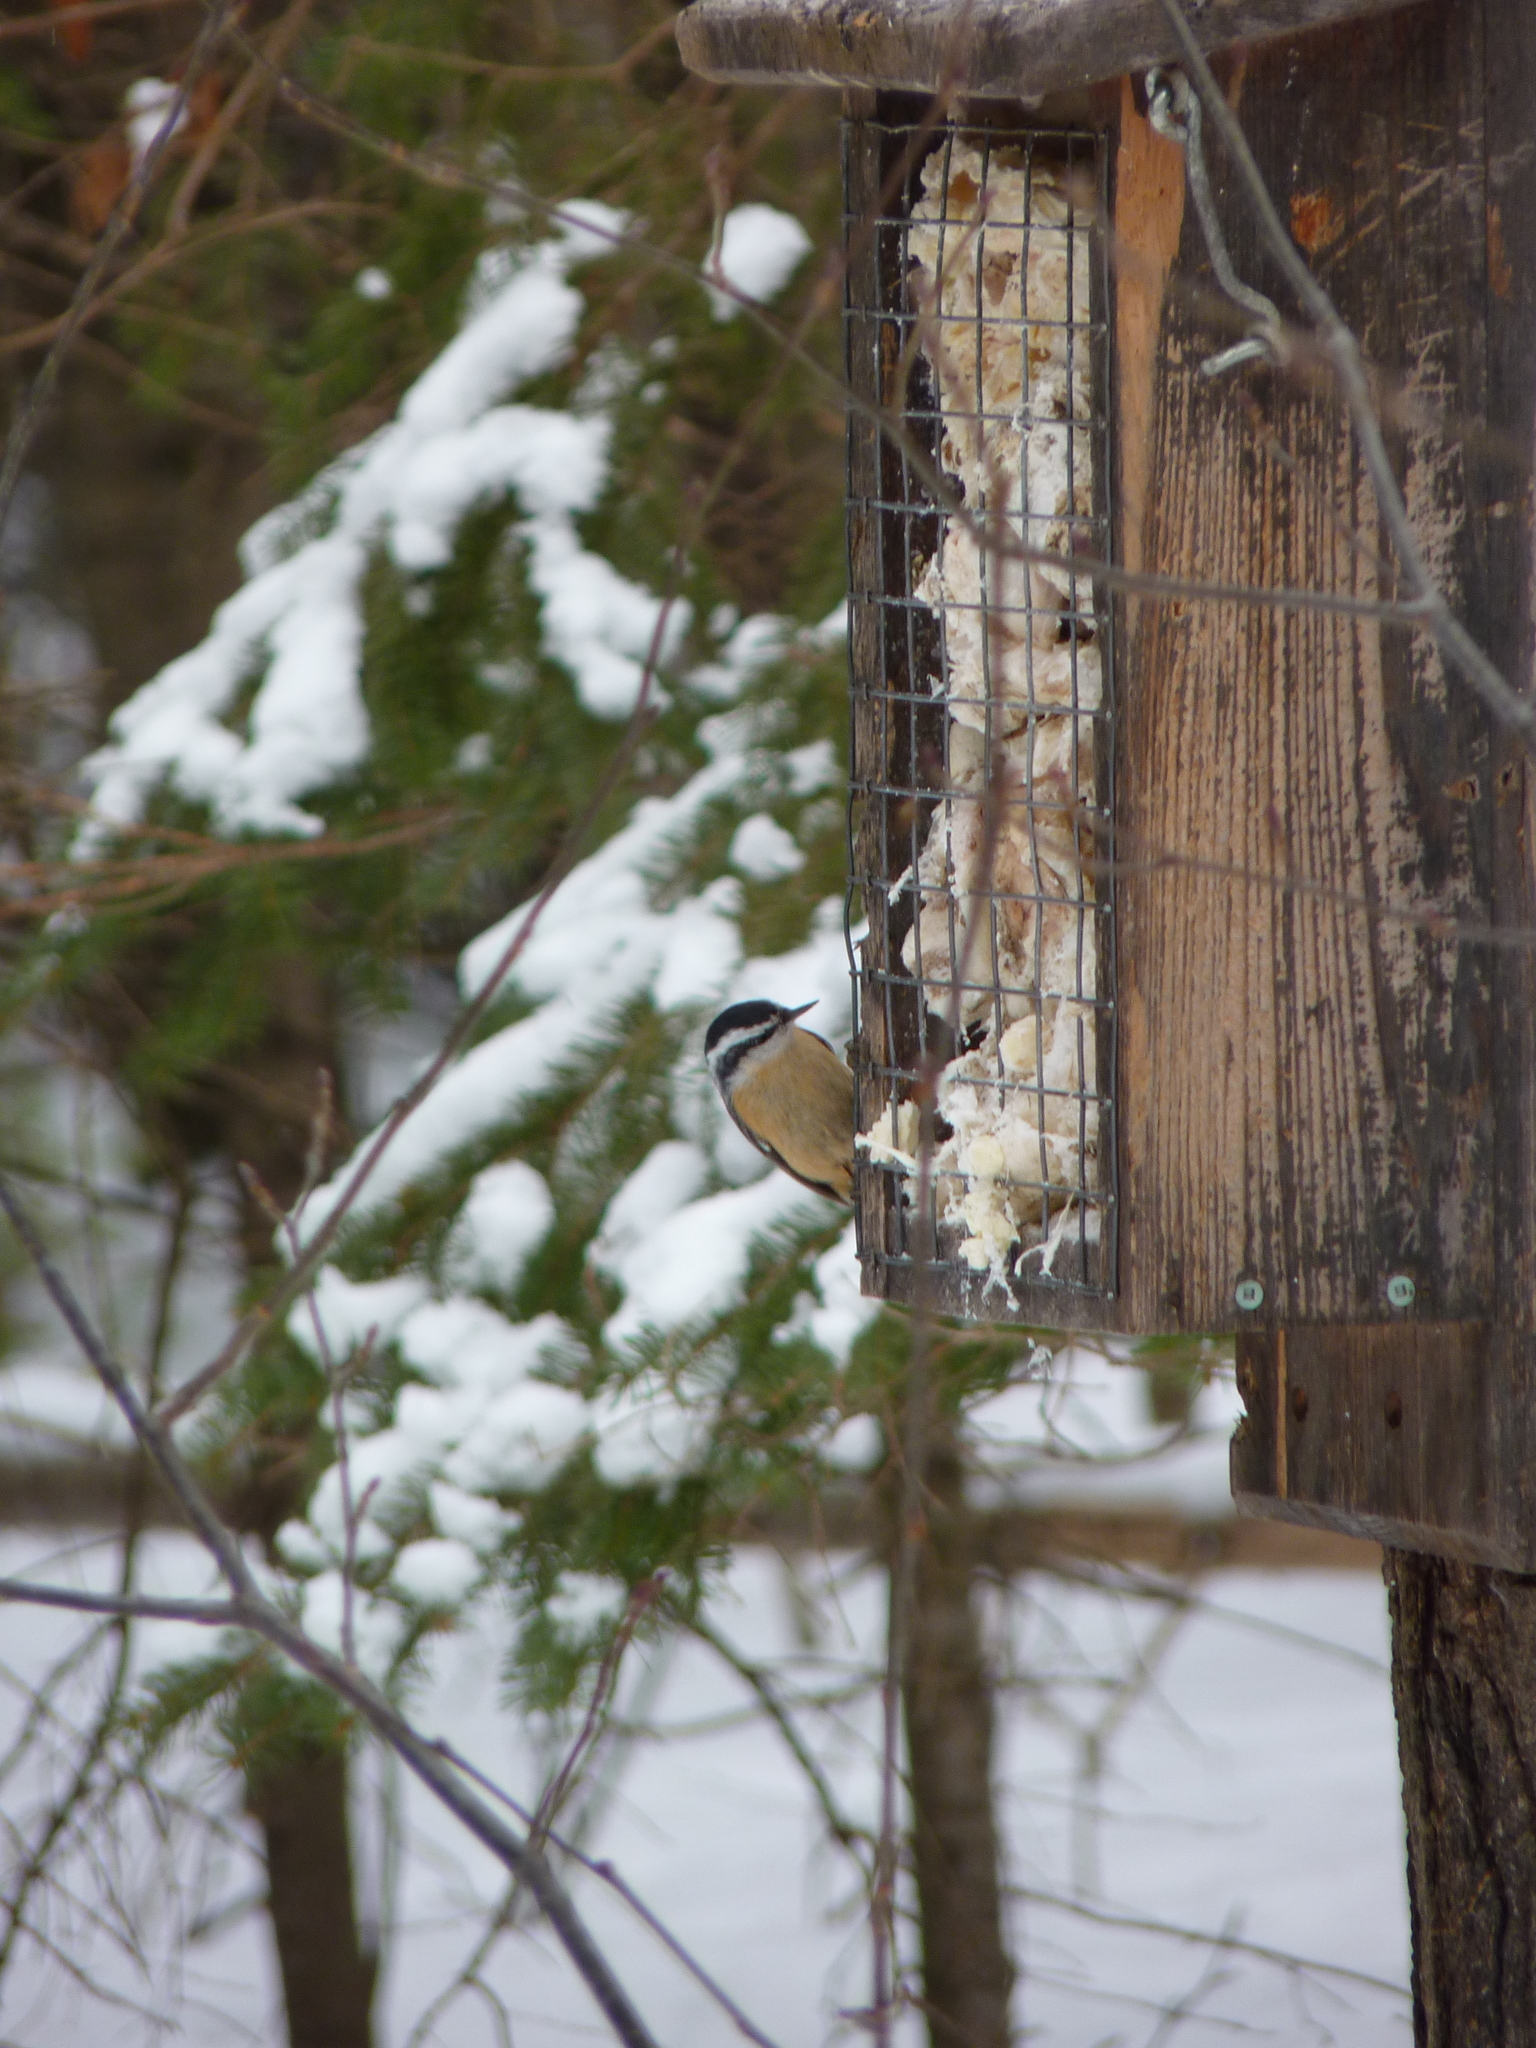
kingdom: Animalia
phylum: Chordata
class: Aves
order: Passeriformes
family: Sittidae
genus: Sitta
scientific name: Sitta canadensis
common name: Red-breasted nuthatch
